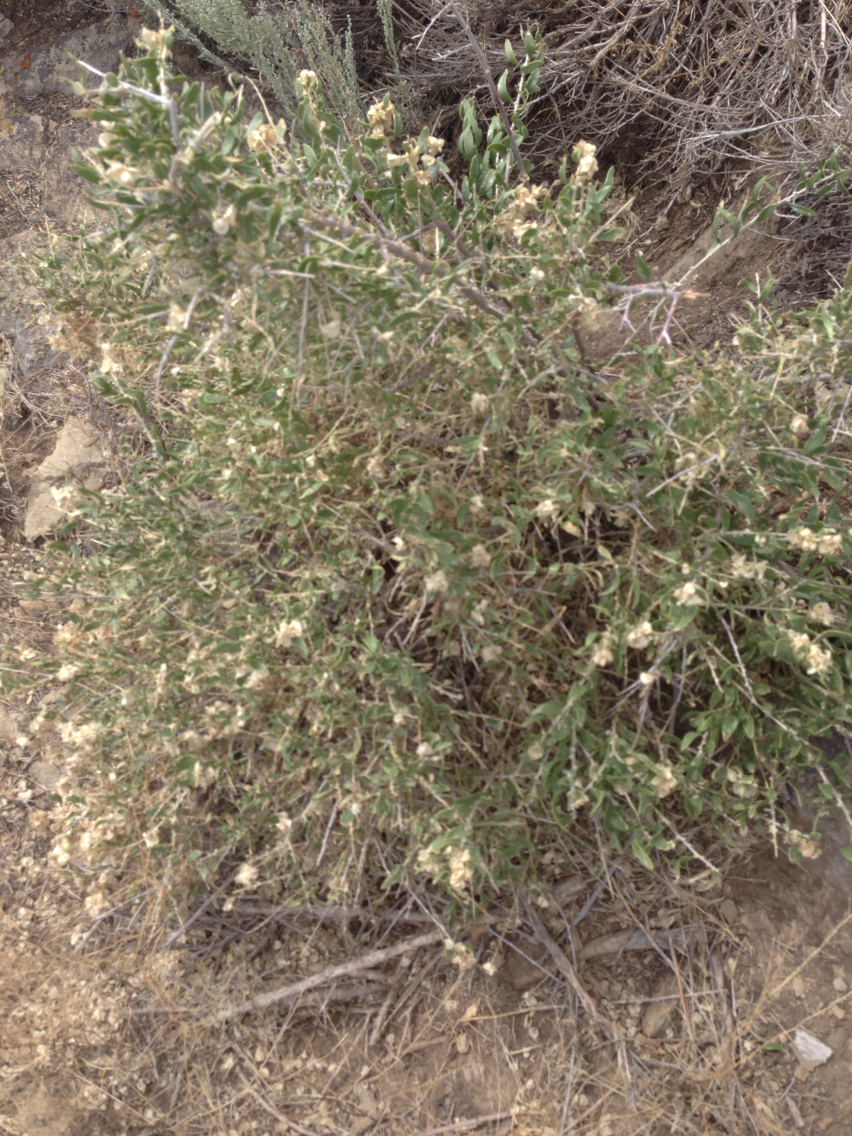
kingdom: Plantae
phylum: Tracheophyta
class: Magnoliopsida
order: Caryophyllales
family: Amaranthaceae
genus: Atriplex
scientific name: Atriplex canescens
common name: Four-wing saltbush
